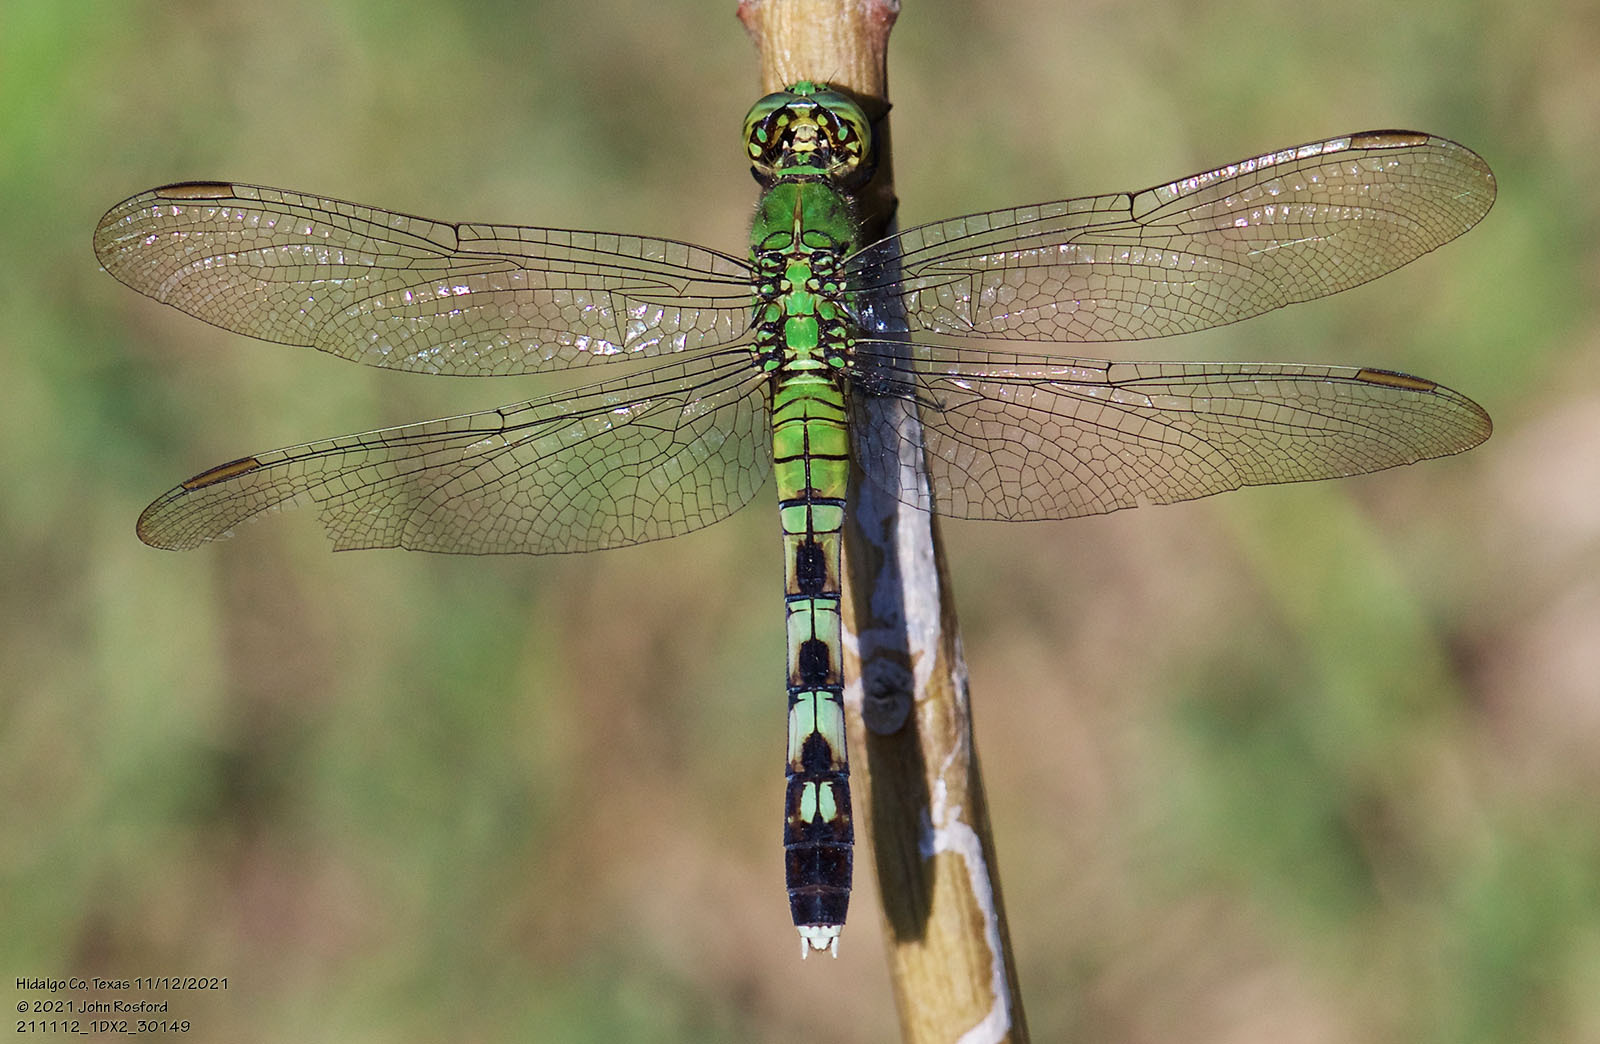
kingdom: Animalia
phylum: Arthropoda
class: Insecta
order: Odonata
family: Libellulidae
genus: Erythemis
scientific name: Erythemis simplicicollis
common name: Eastern pondhawk
